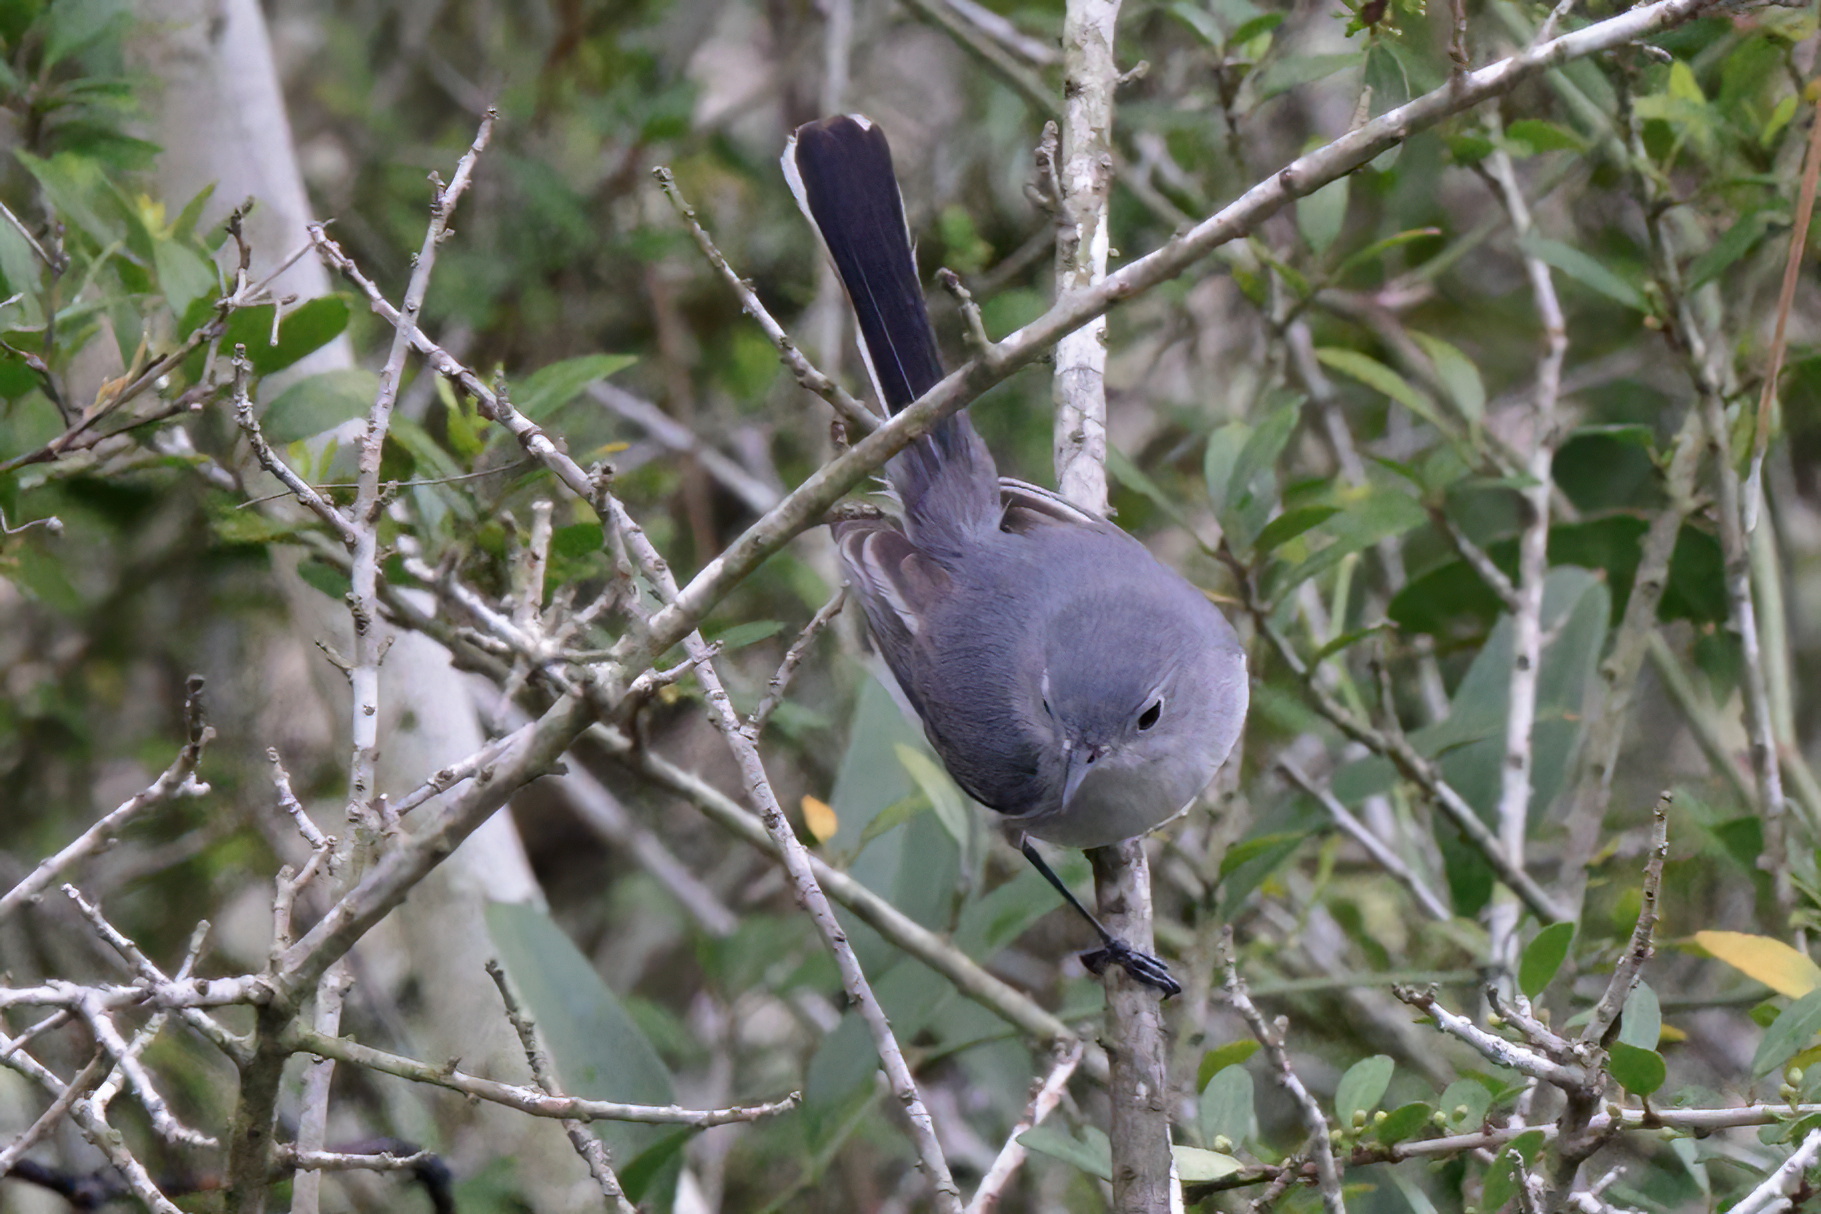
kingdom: Animalia
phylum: Chordata
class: Aves
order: Passeriformes
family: Polioptilidae
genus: Polioptila
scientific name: Polioptila caerulea
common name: Blue-gray gnatcatcher
